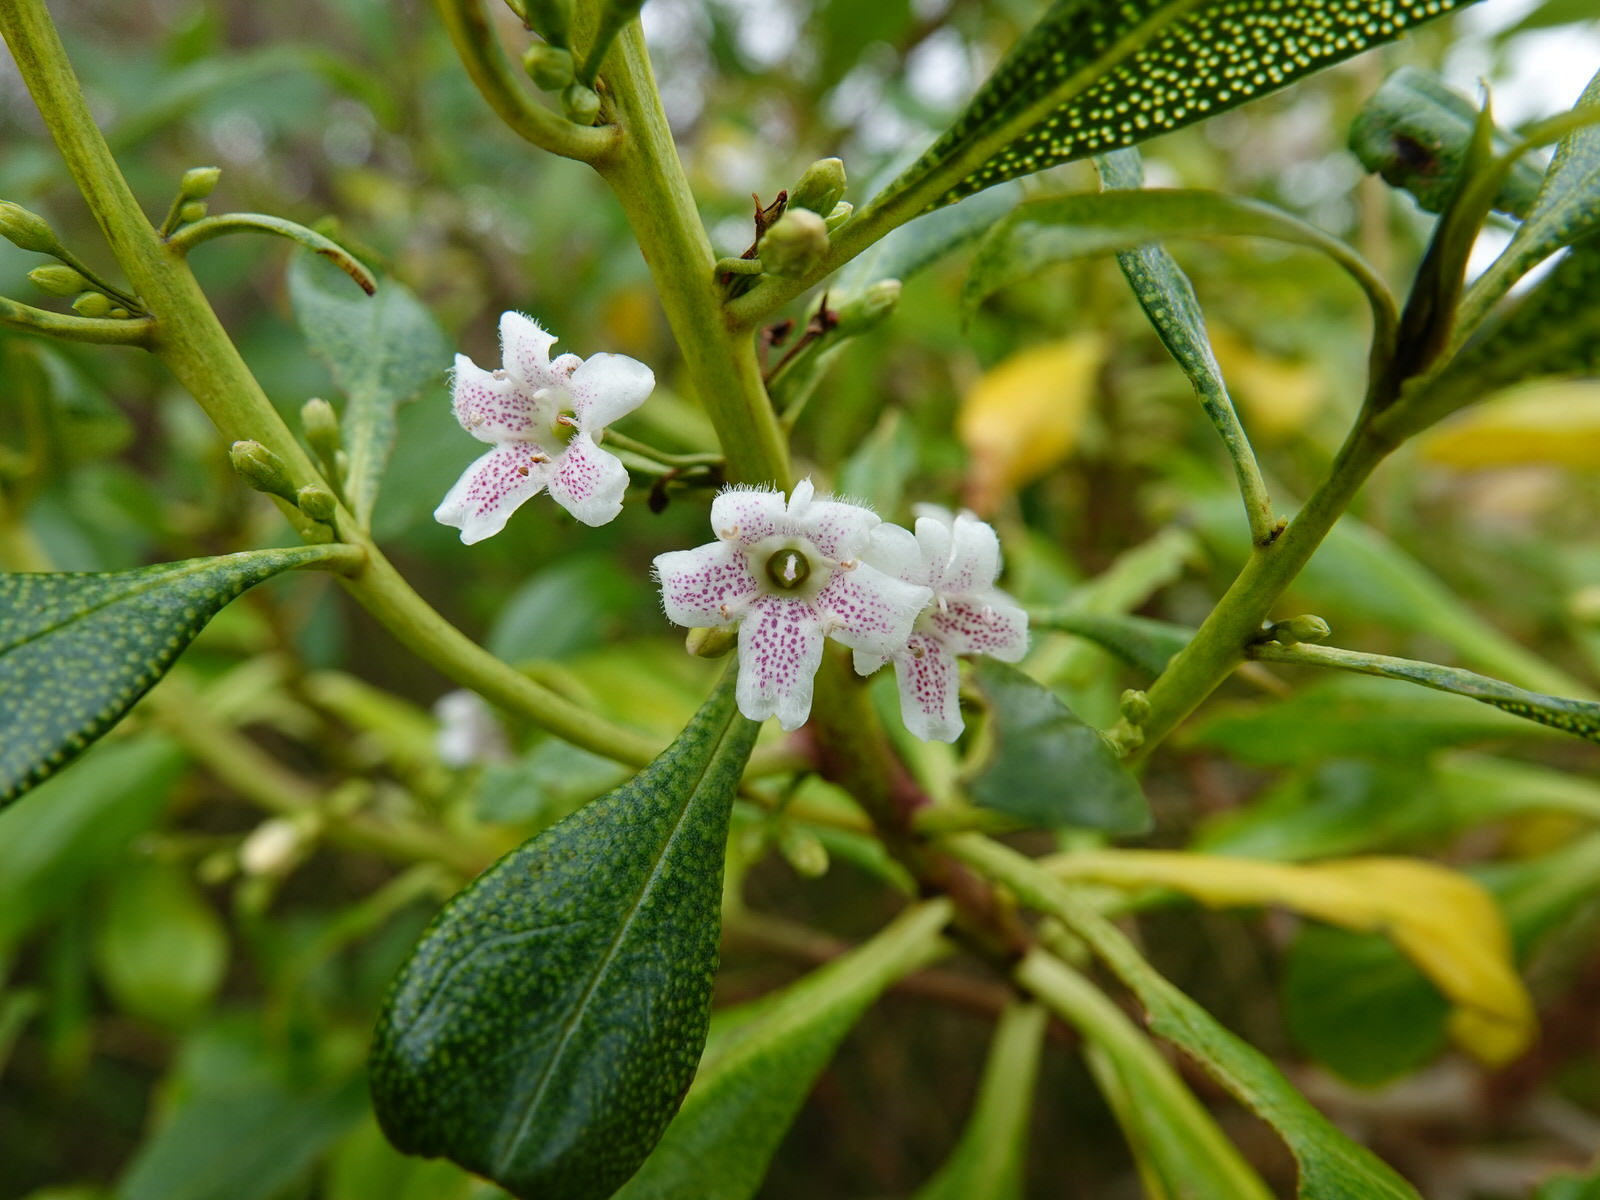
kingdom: Plantae
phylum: Tracheophyta
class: Magnoliopsida
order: Lamiales
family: Scrophulariaceae
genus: Myoporum
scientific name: Myoporum laetum
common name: Ngaio tree
